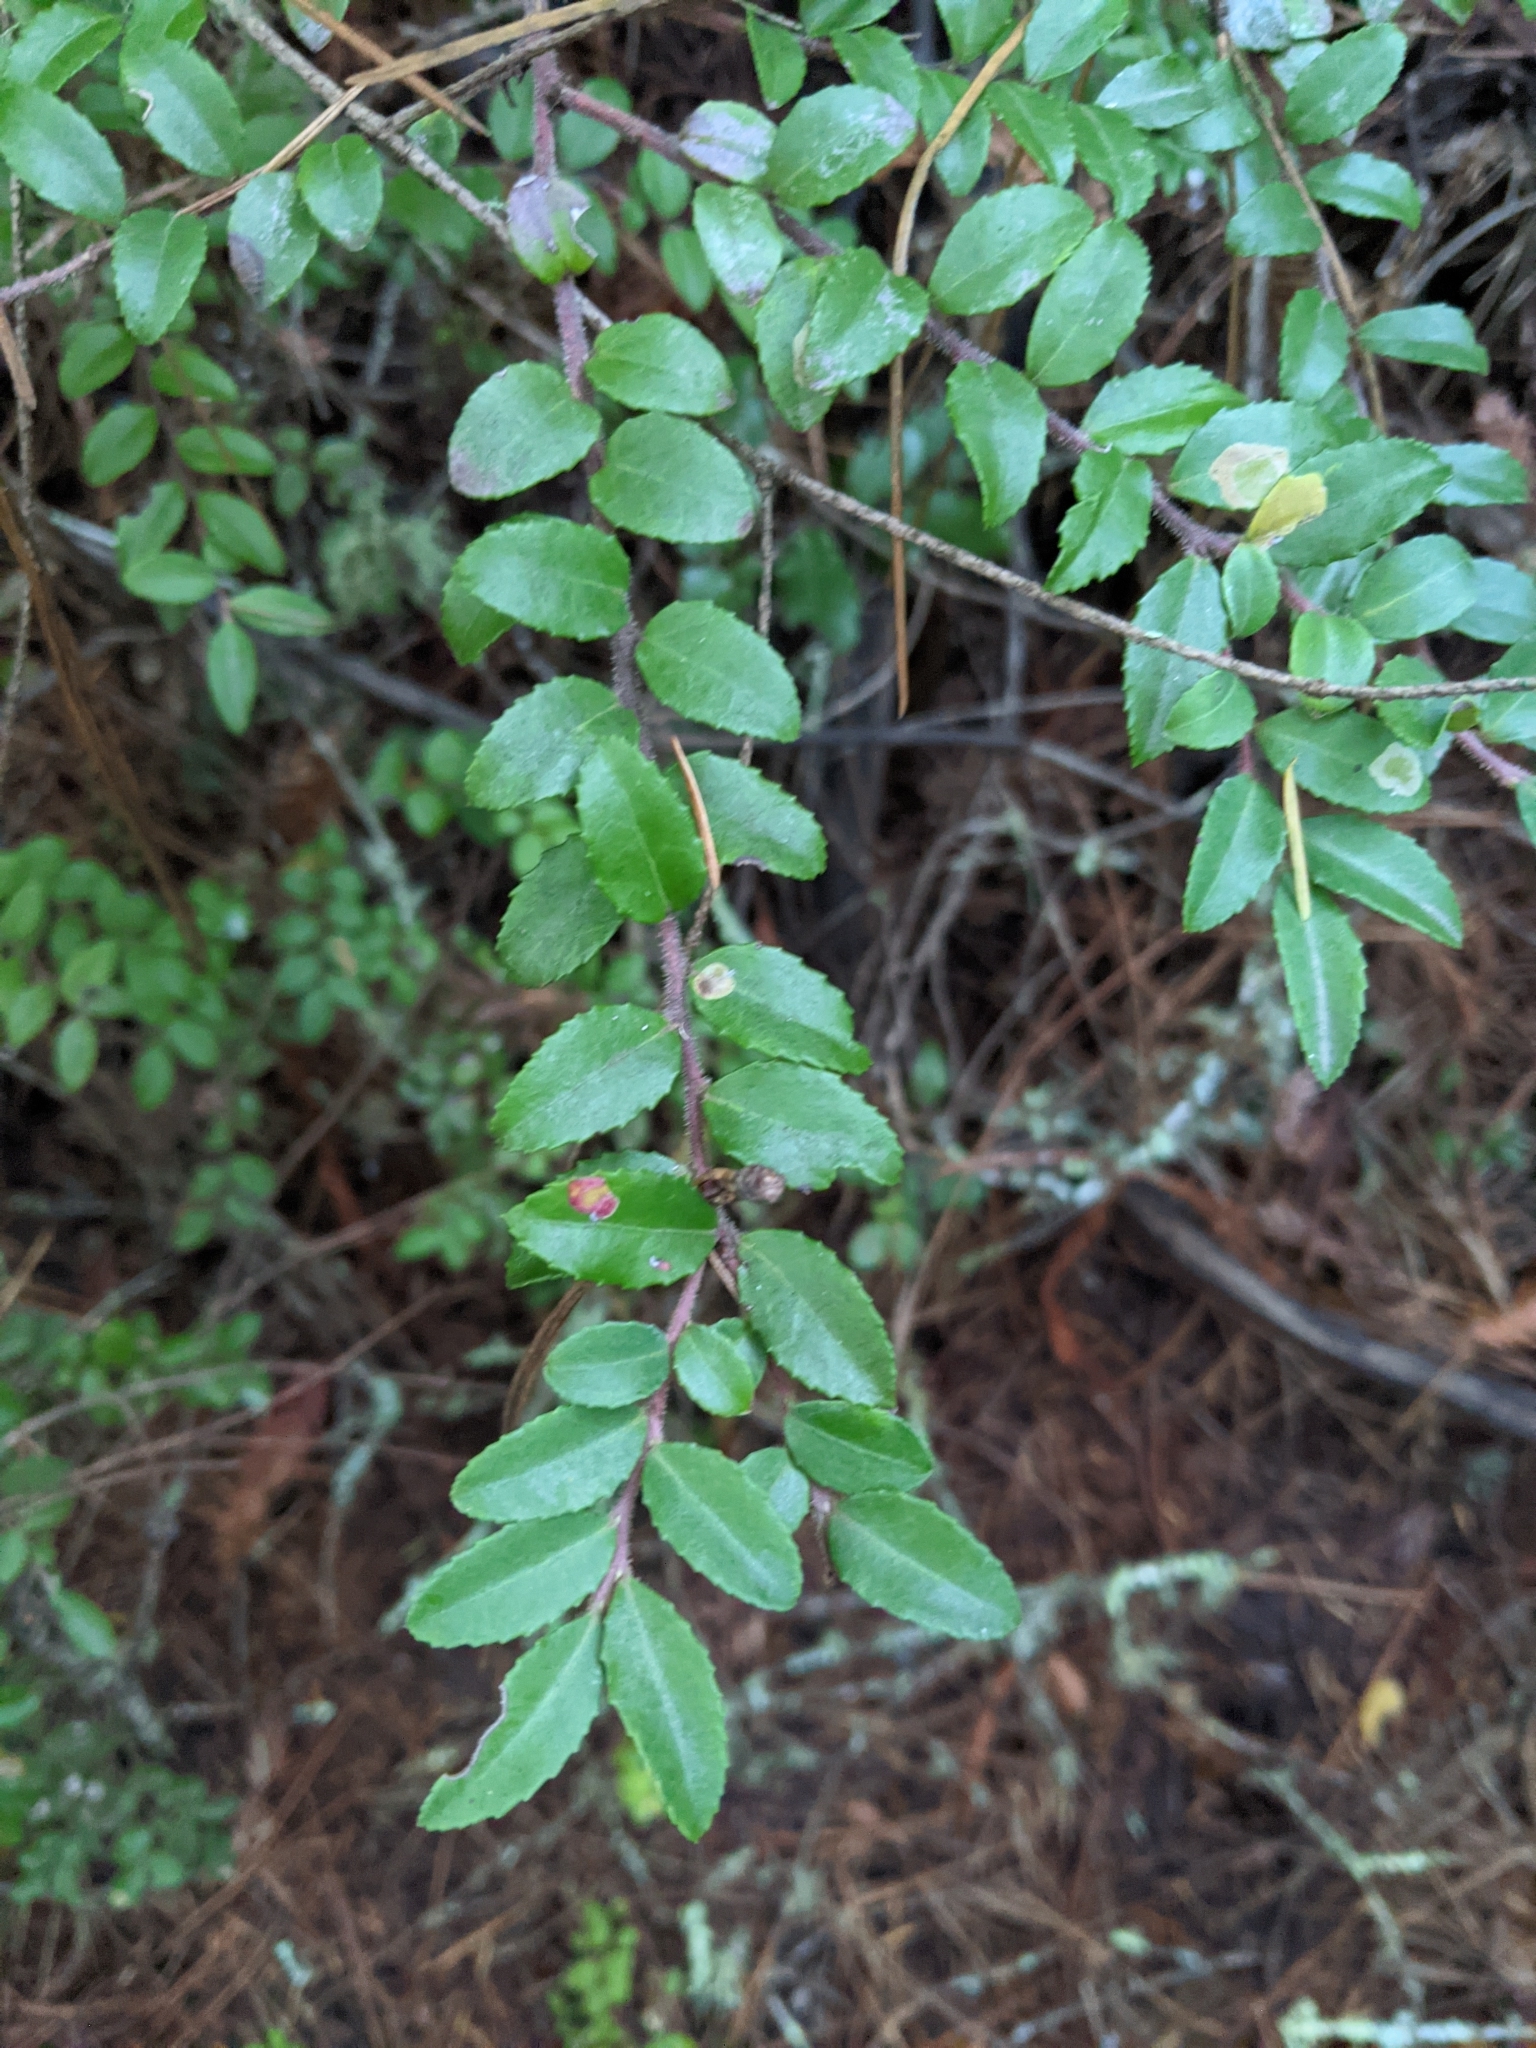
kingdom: Plantae
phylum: Tracheophyta
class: Magnoliopsida
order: Ericales
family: Ericaceae
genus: Vaccinium
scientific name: Vaccinium ovatum
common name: California-huckleberry
